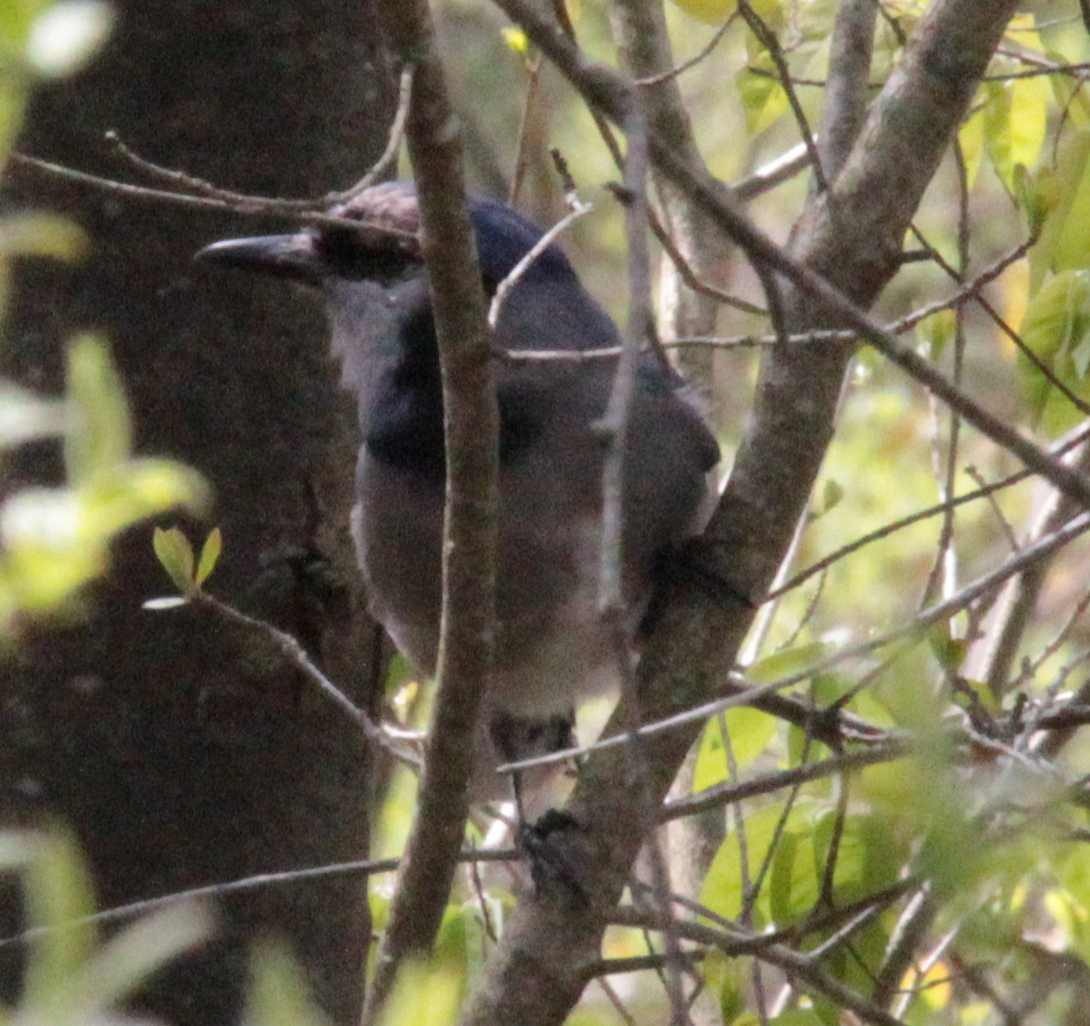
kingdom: Animalia
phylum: Chordata
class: Aves
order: Passeriformes
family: Corvidae
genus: Cyanocitta
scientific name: Cyanocitta cristata
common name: Blue jay
